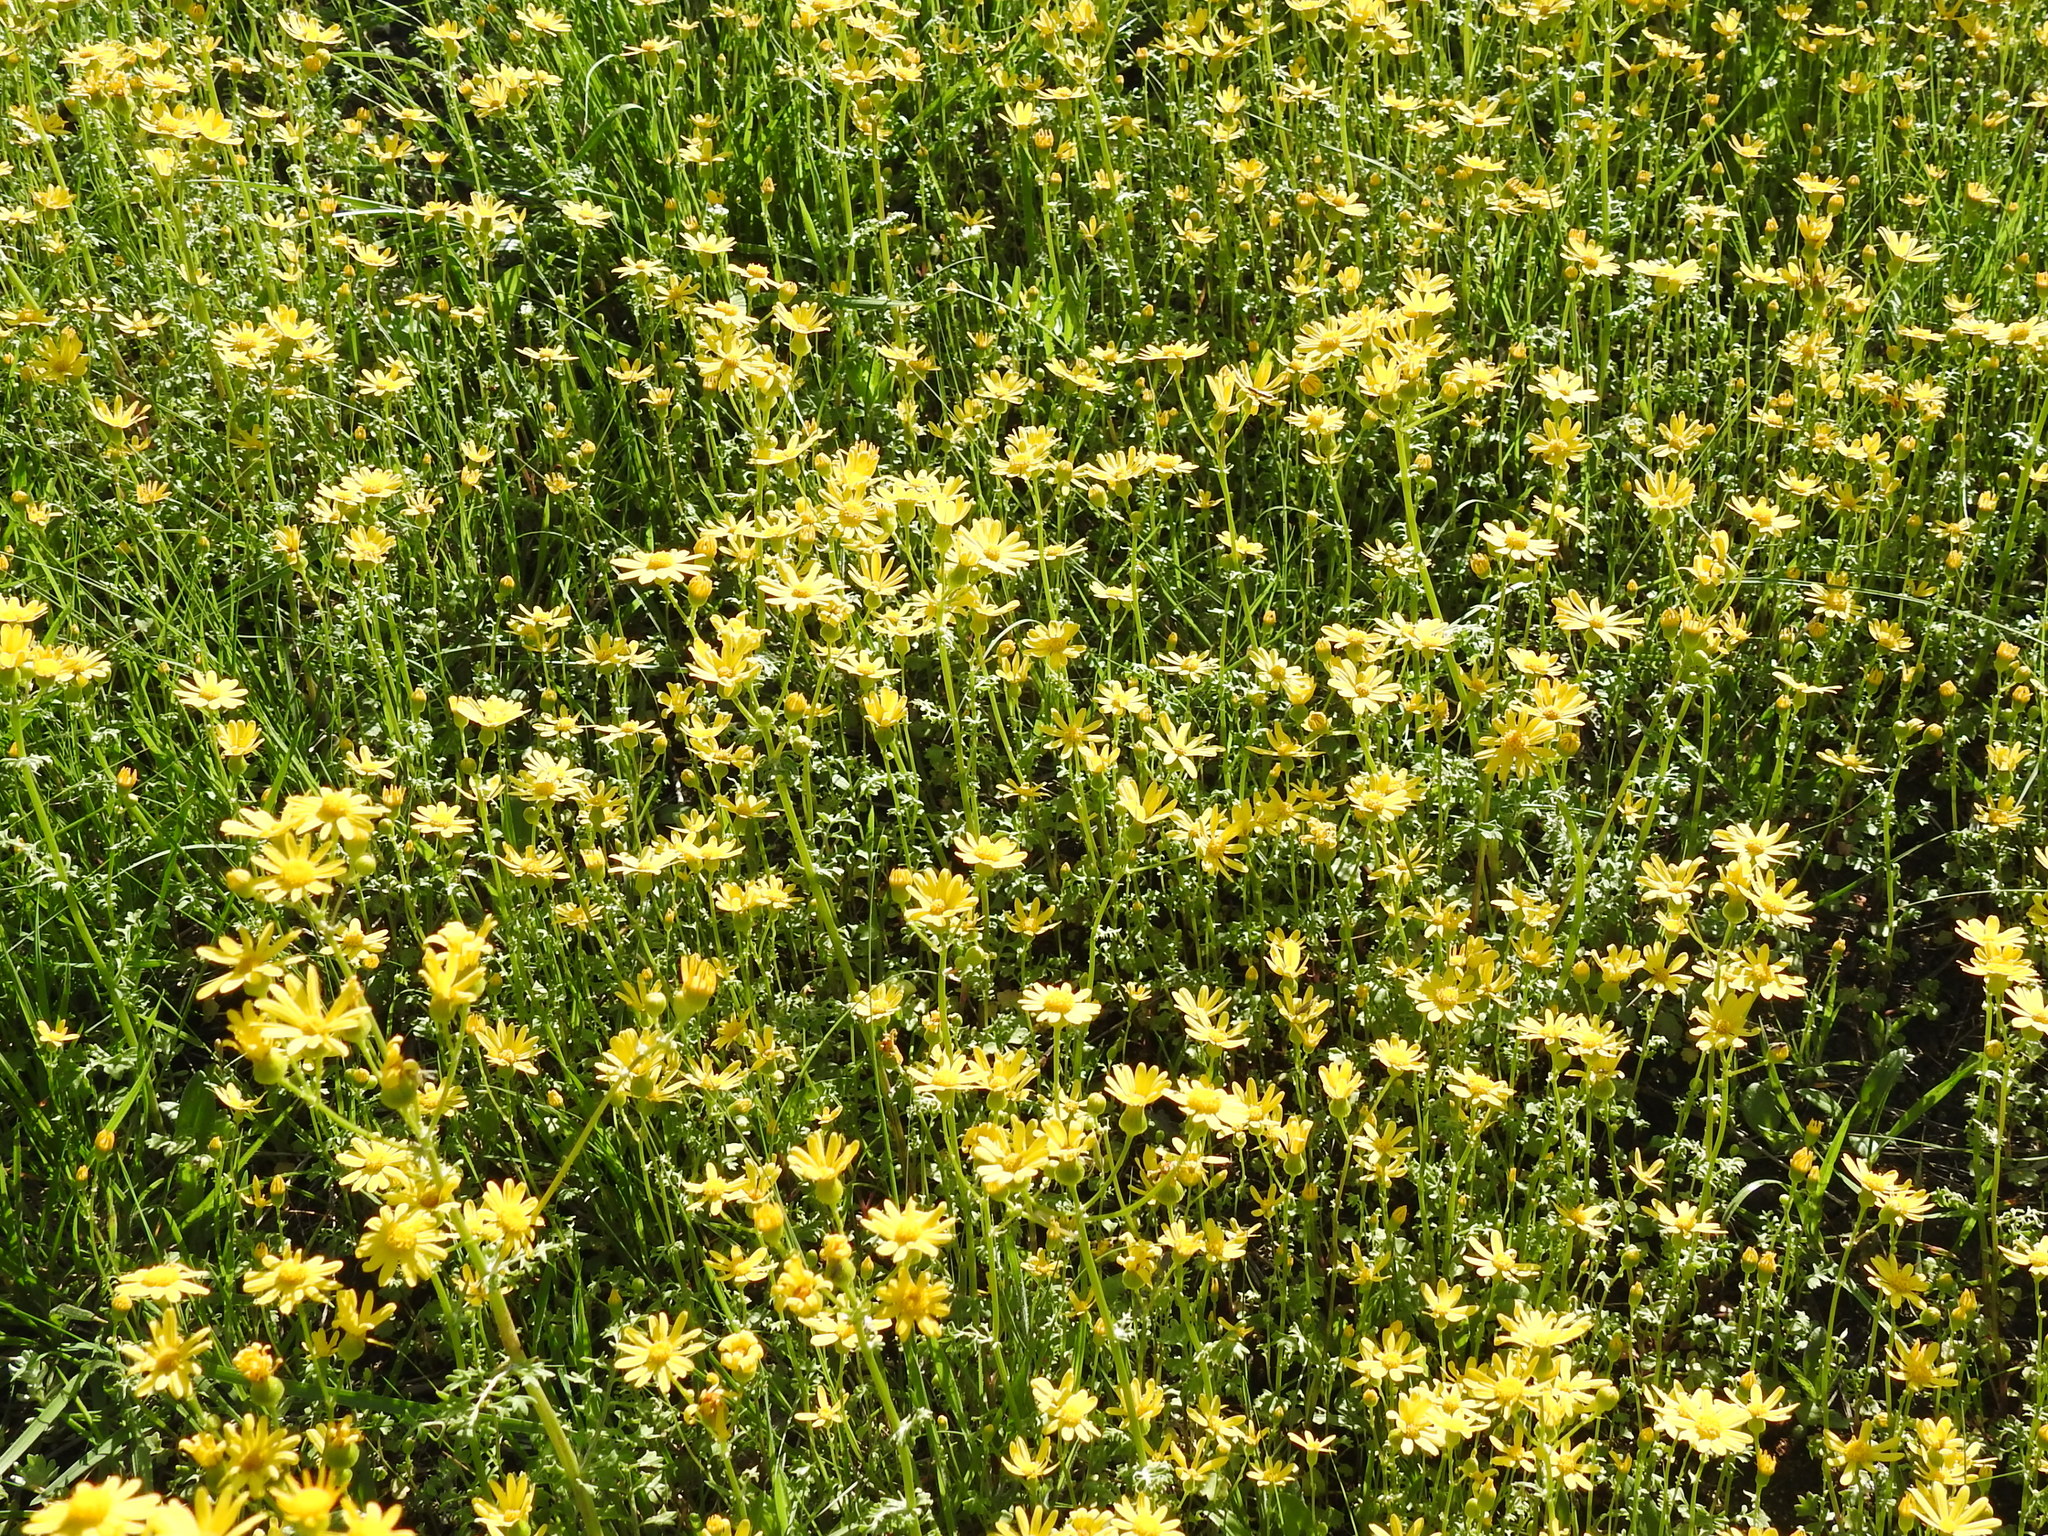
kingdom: Plantae
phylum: Tracheophyta
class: Magnoliopsida
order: Asterales
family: Asteraceae
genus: Packera
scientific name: Packera tampicana
